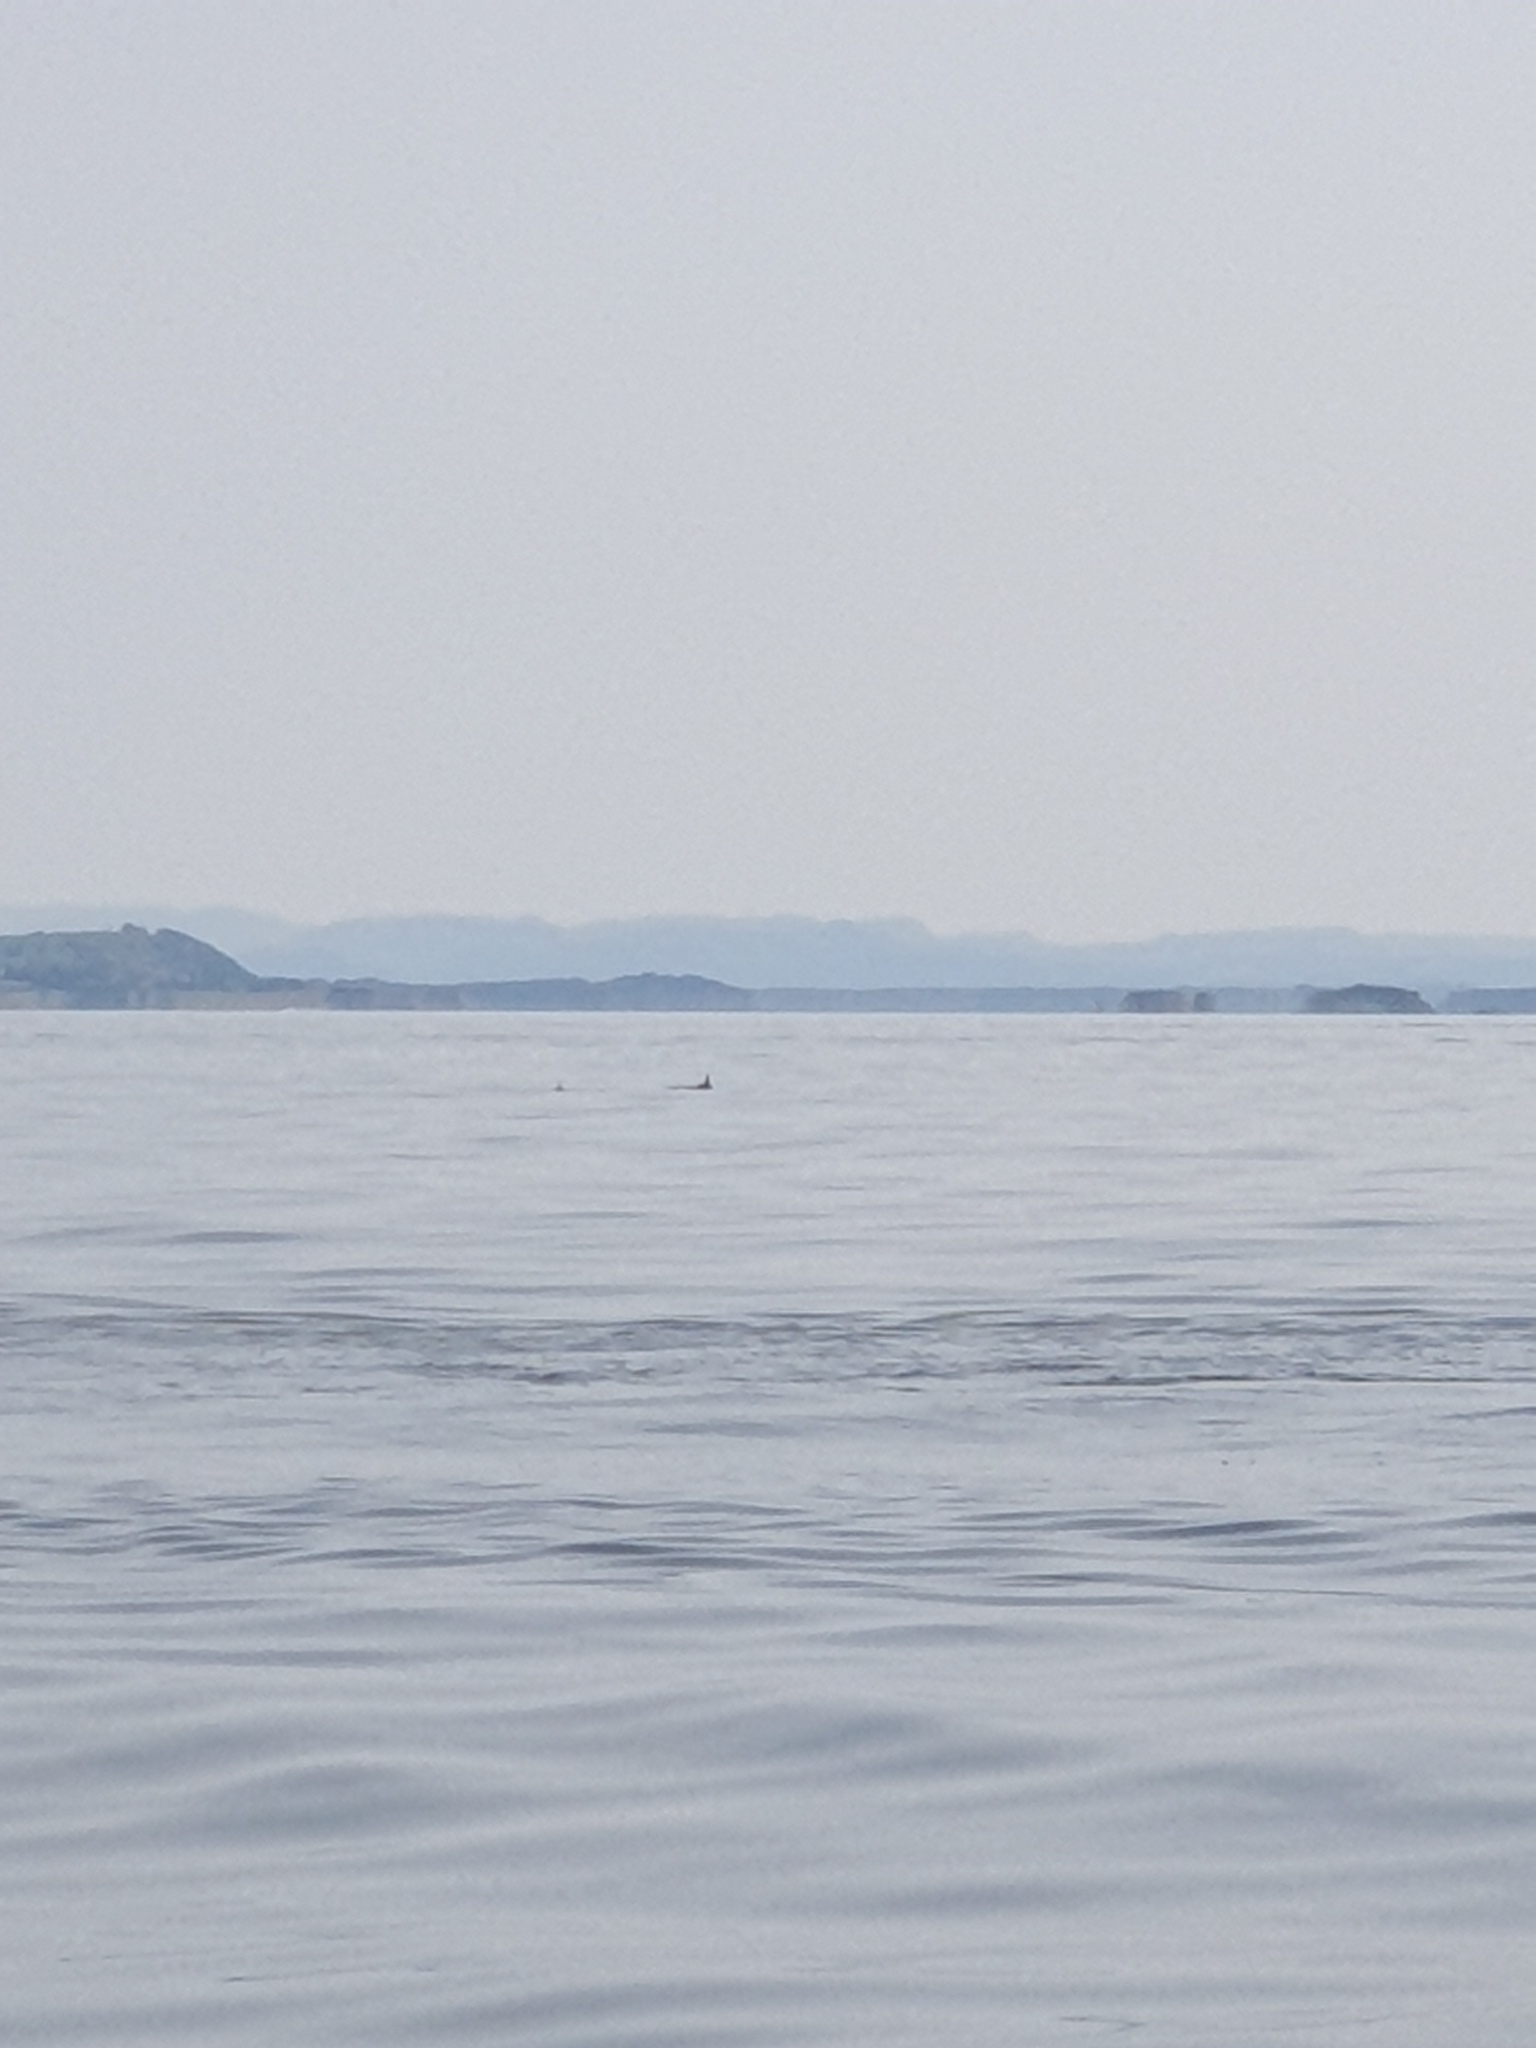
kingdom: Animalia
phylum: Chordata
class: Mammalia
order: Cetacea
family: Phocoenidae
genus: Phocoena
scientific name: Phocoena phocoena
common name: Harbor porpoise
